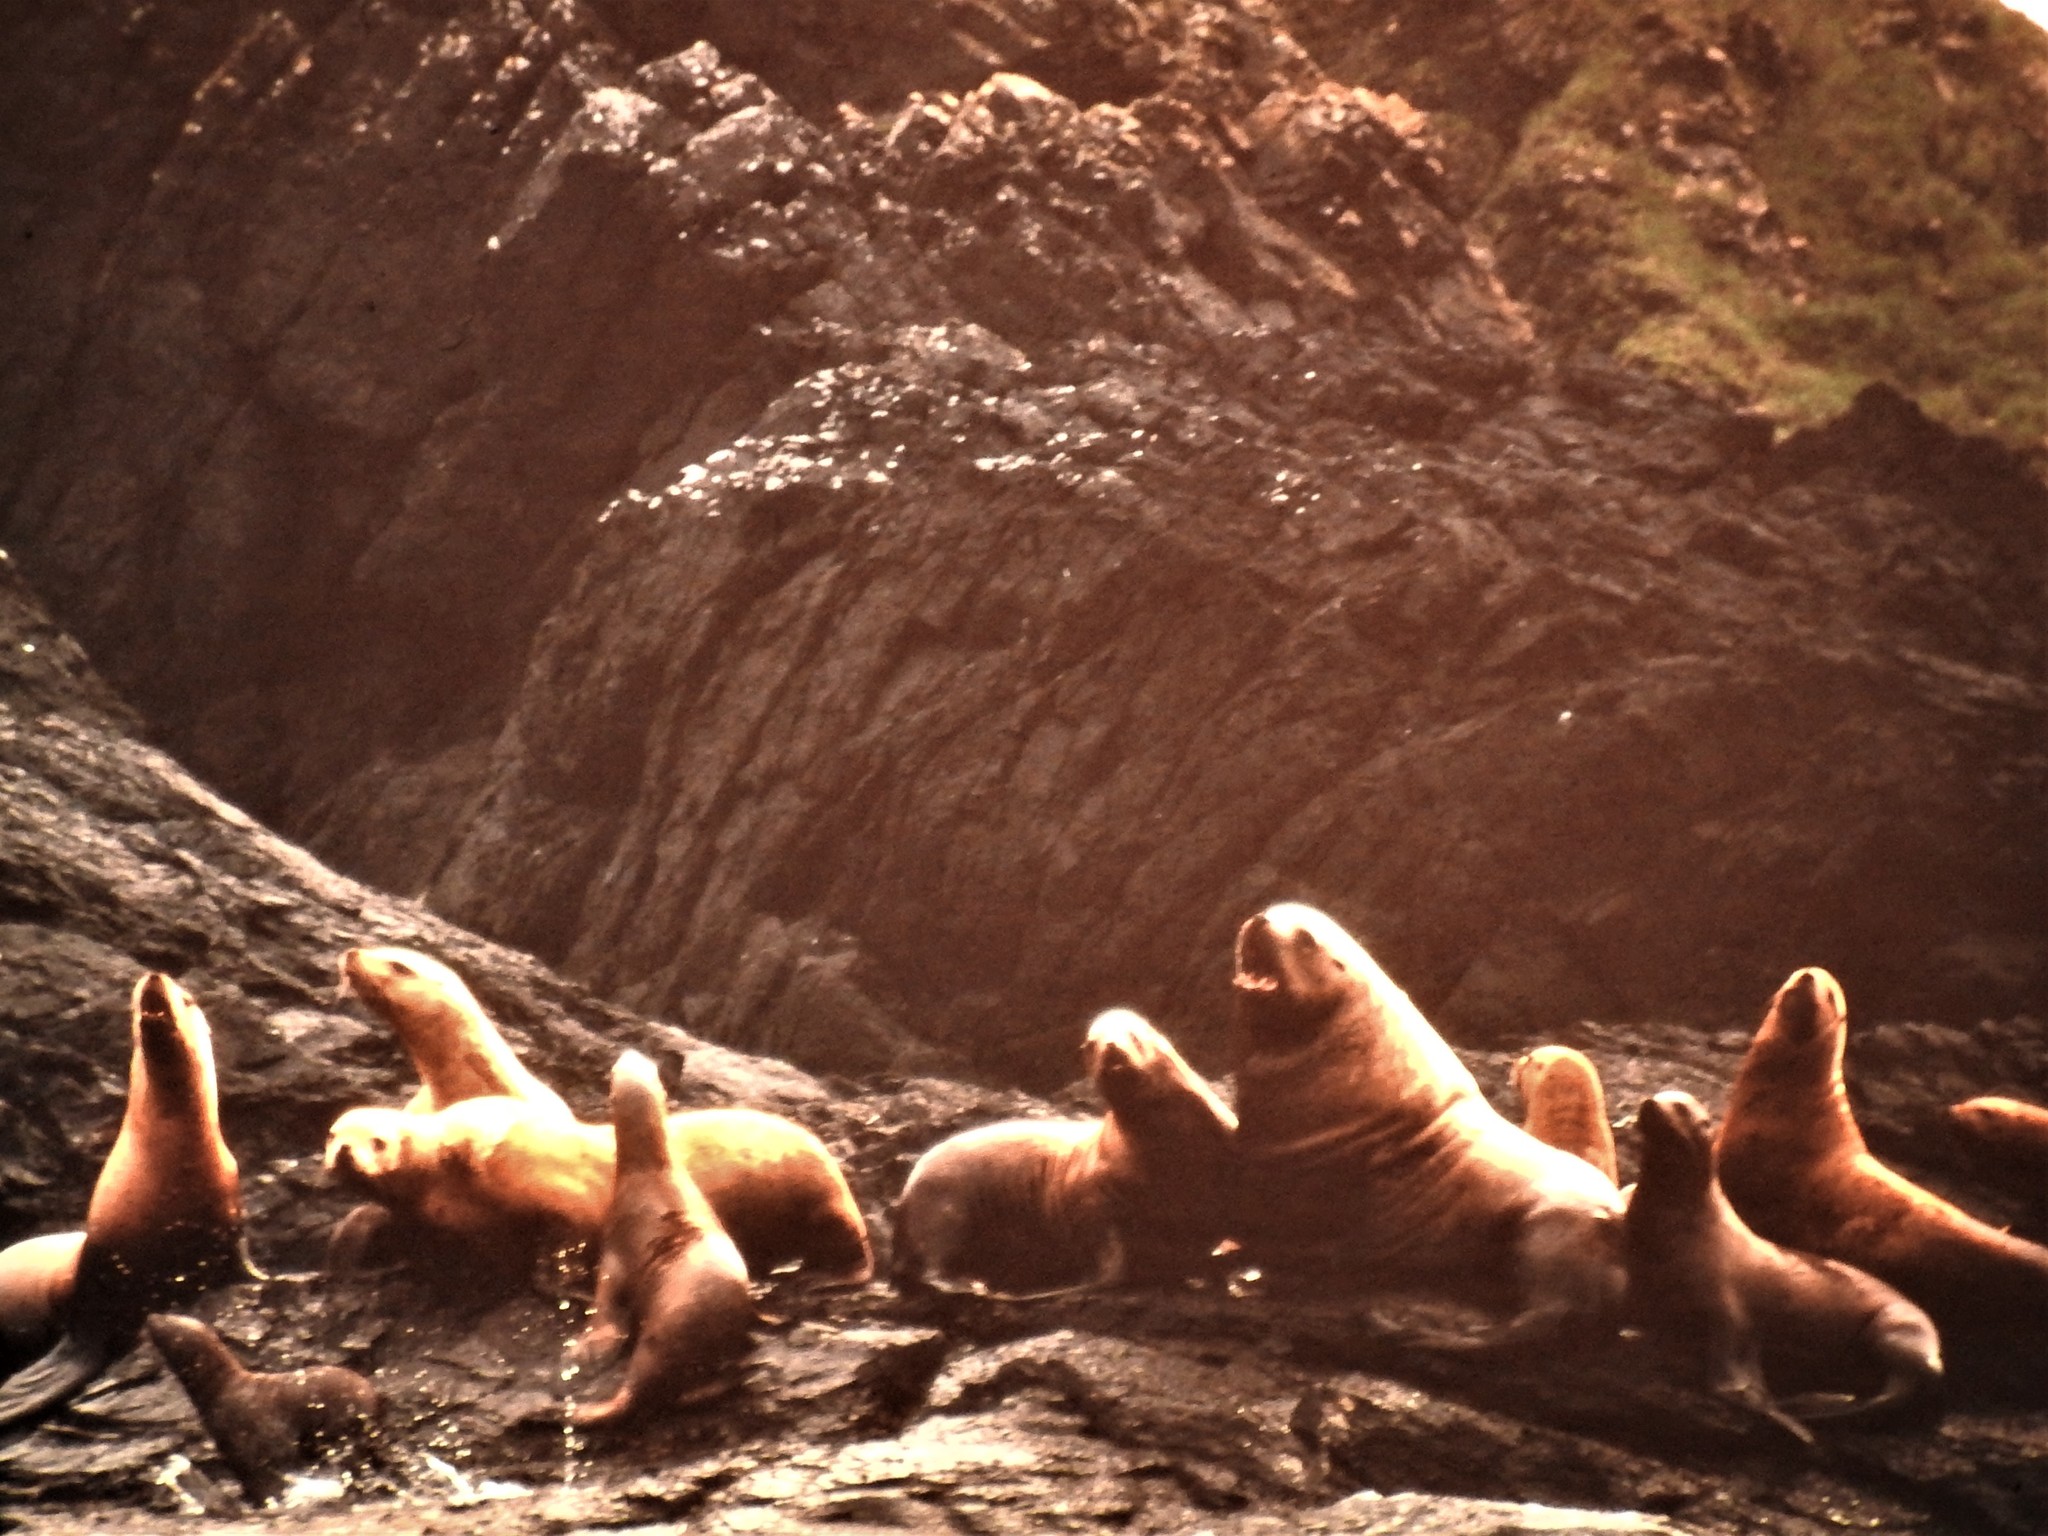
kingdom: Animalia
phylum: Chordata
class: Mammalia
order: Carnivora
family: Otariidae
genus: Eumetopias
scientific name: Eumetopias jubatus
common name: Steller sea lion
